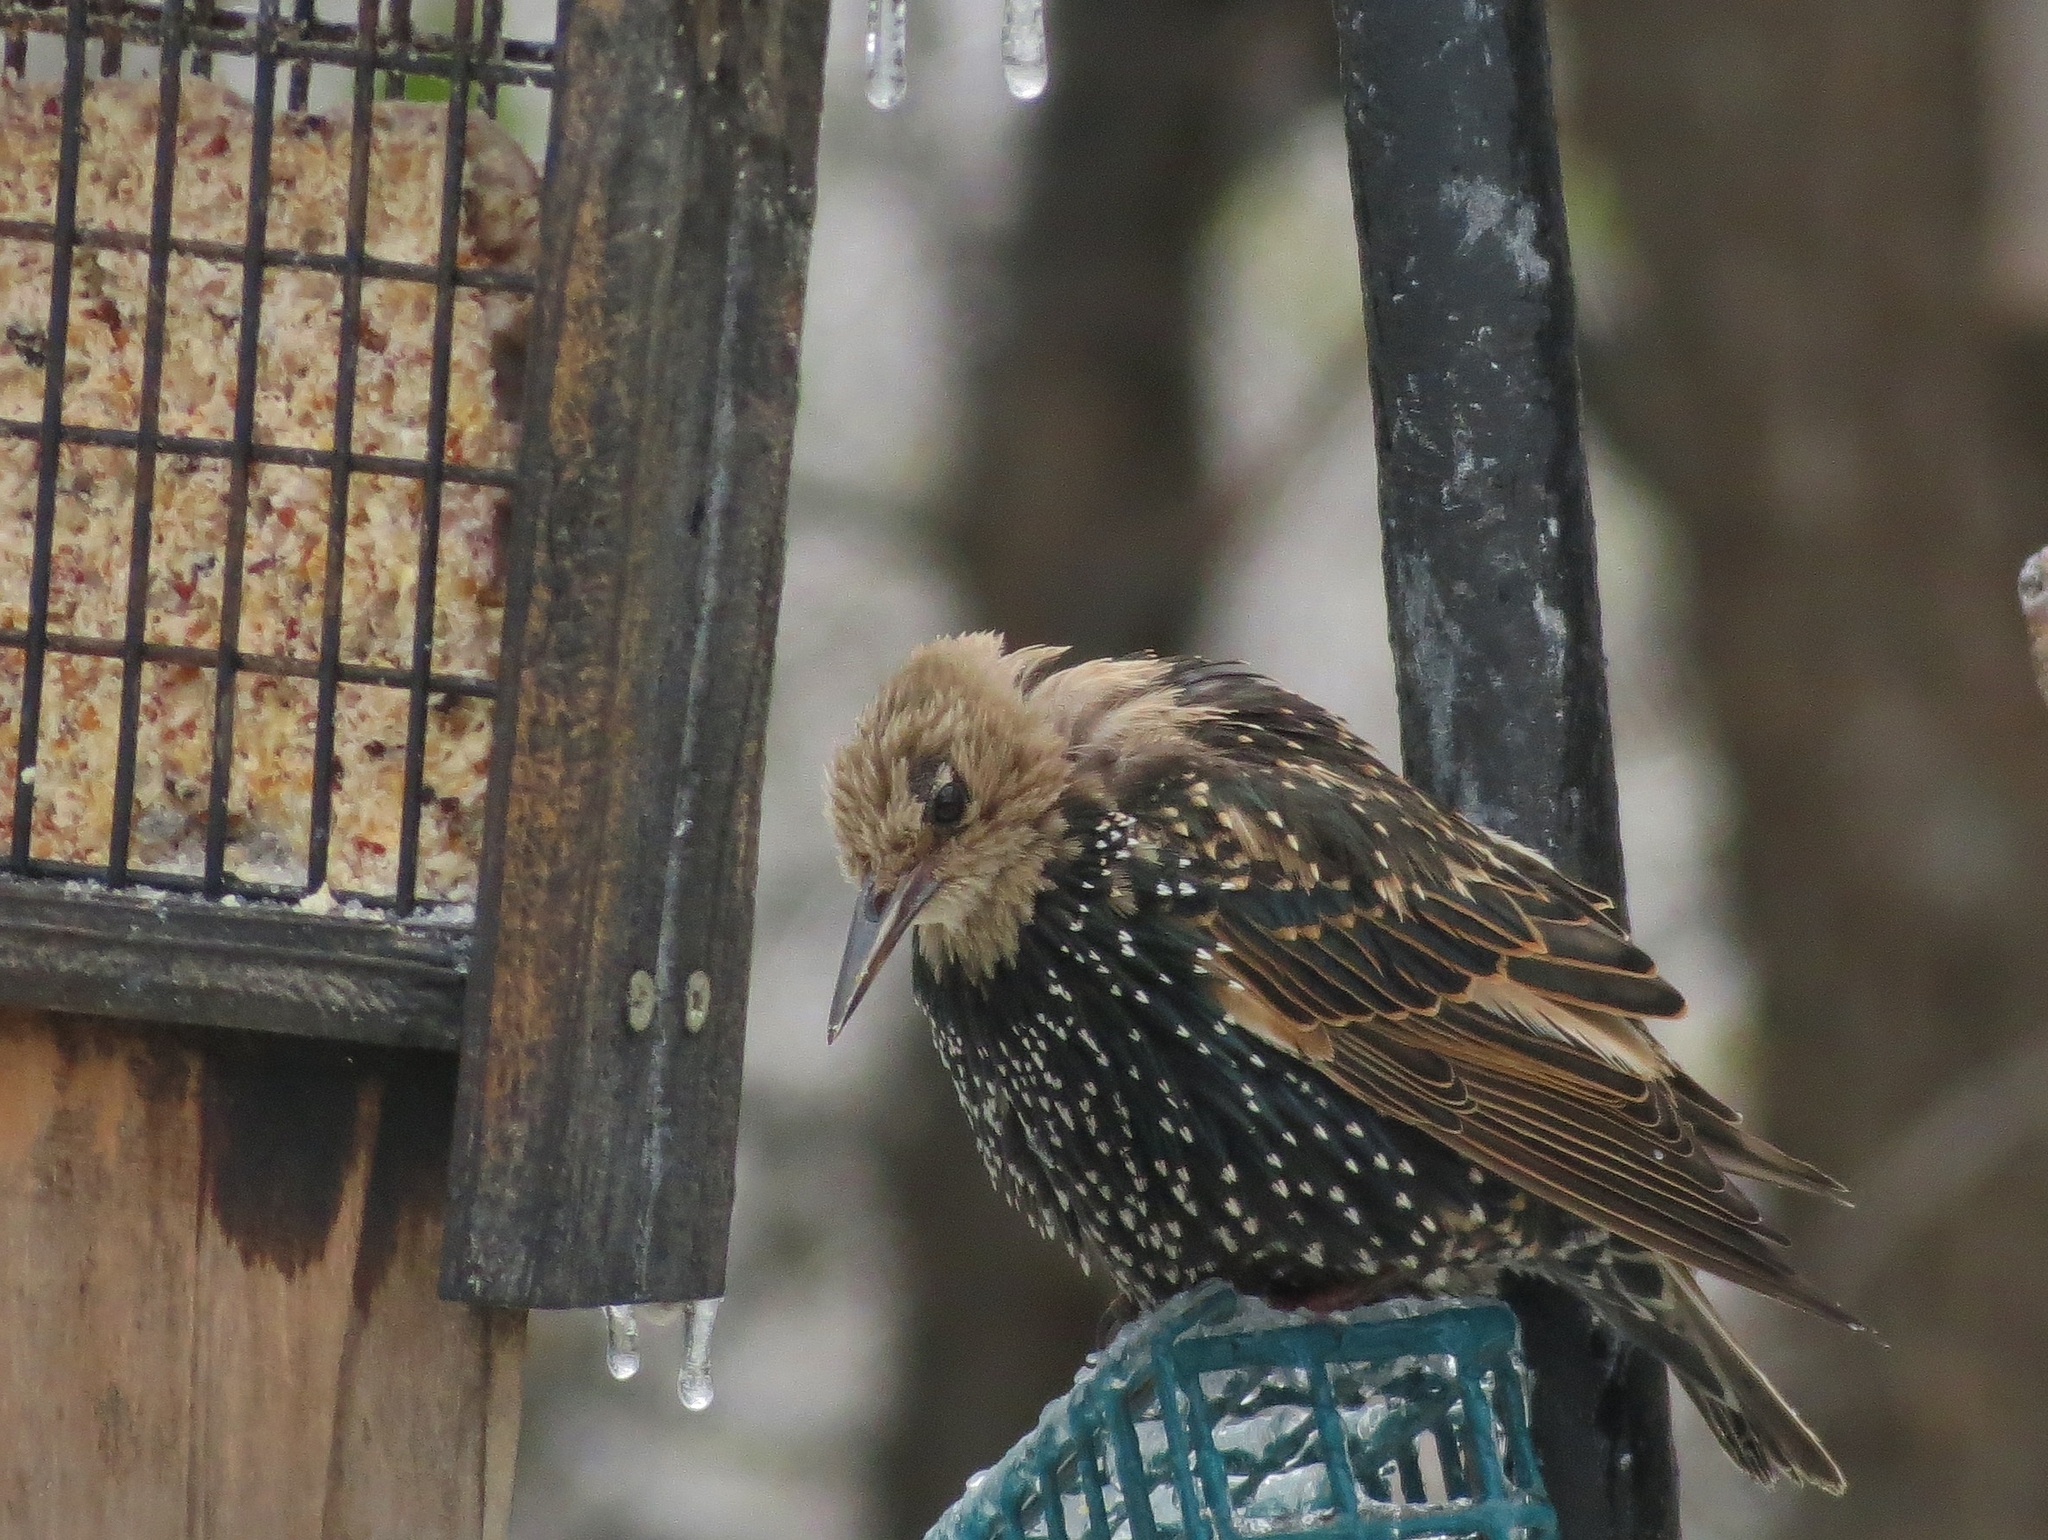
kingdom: Animalia
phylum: Chordata
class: Aves
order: Passeriformes
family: Sturnidae
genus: Sturnus
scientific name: Sturnus vulgaris
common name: Common starling
